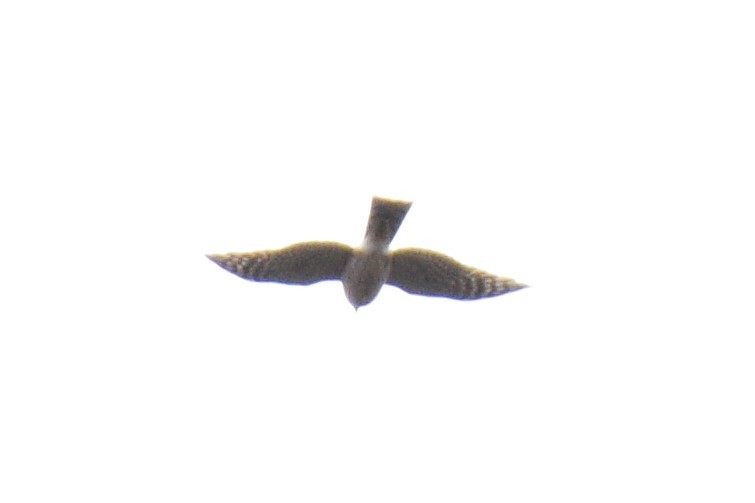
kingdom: Animalia
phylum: Chordata
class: Aves
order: Accipitriformes
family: Accipitridae
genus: Accipiter
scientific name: Accipiter striatus
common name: Sharp-shinned hawk
